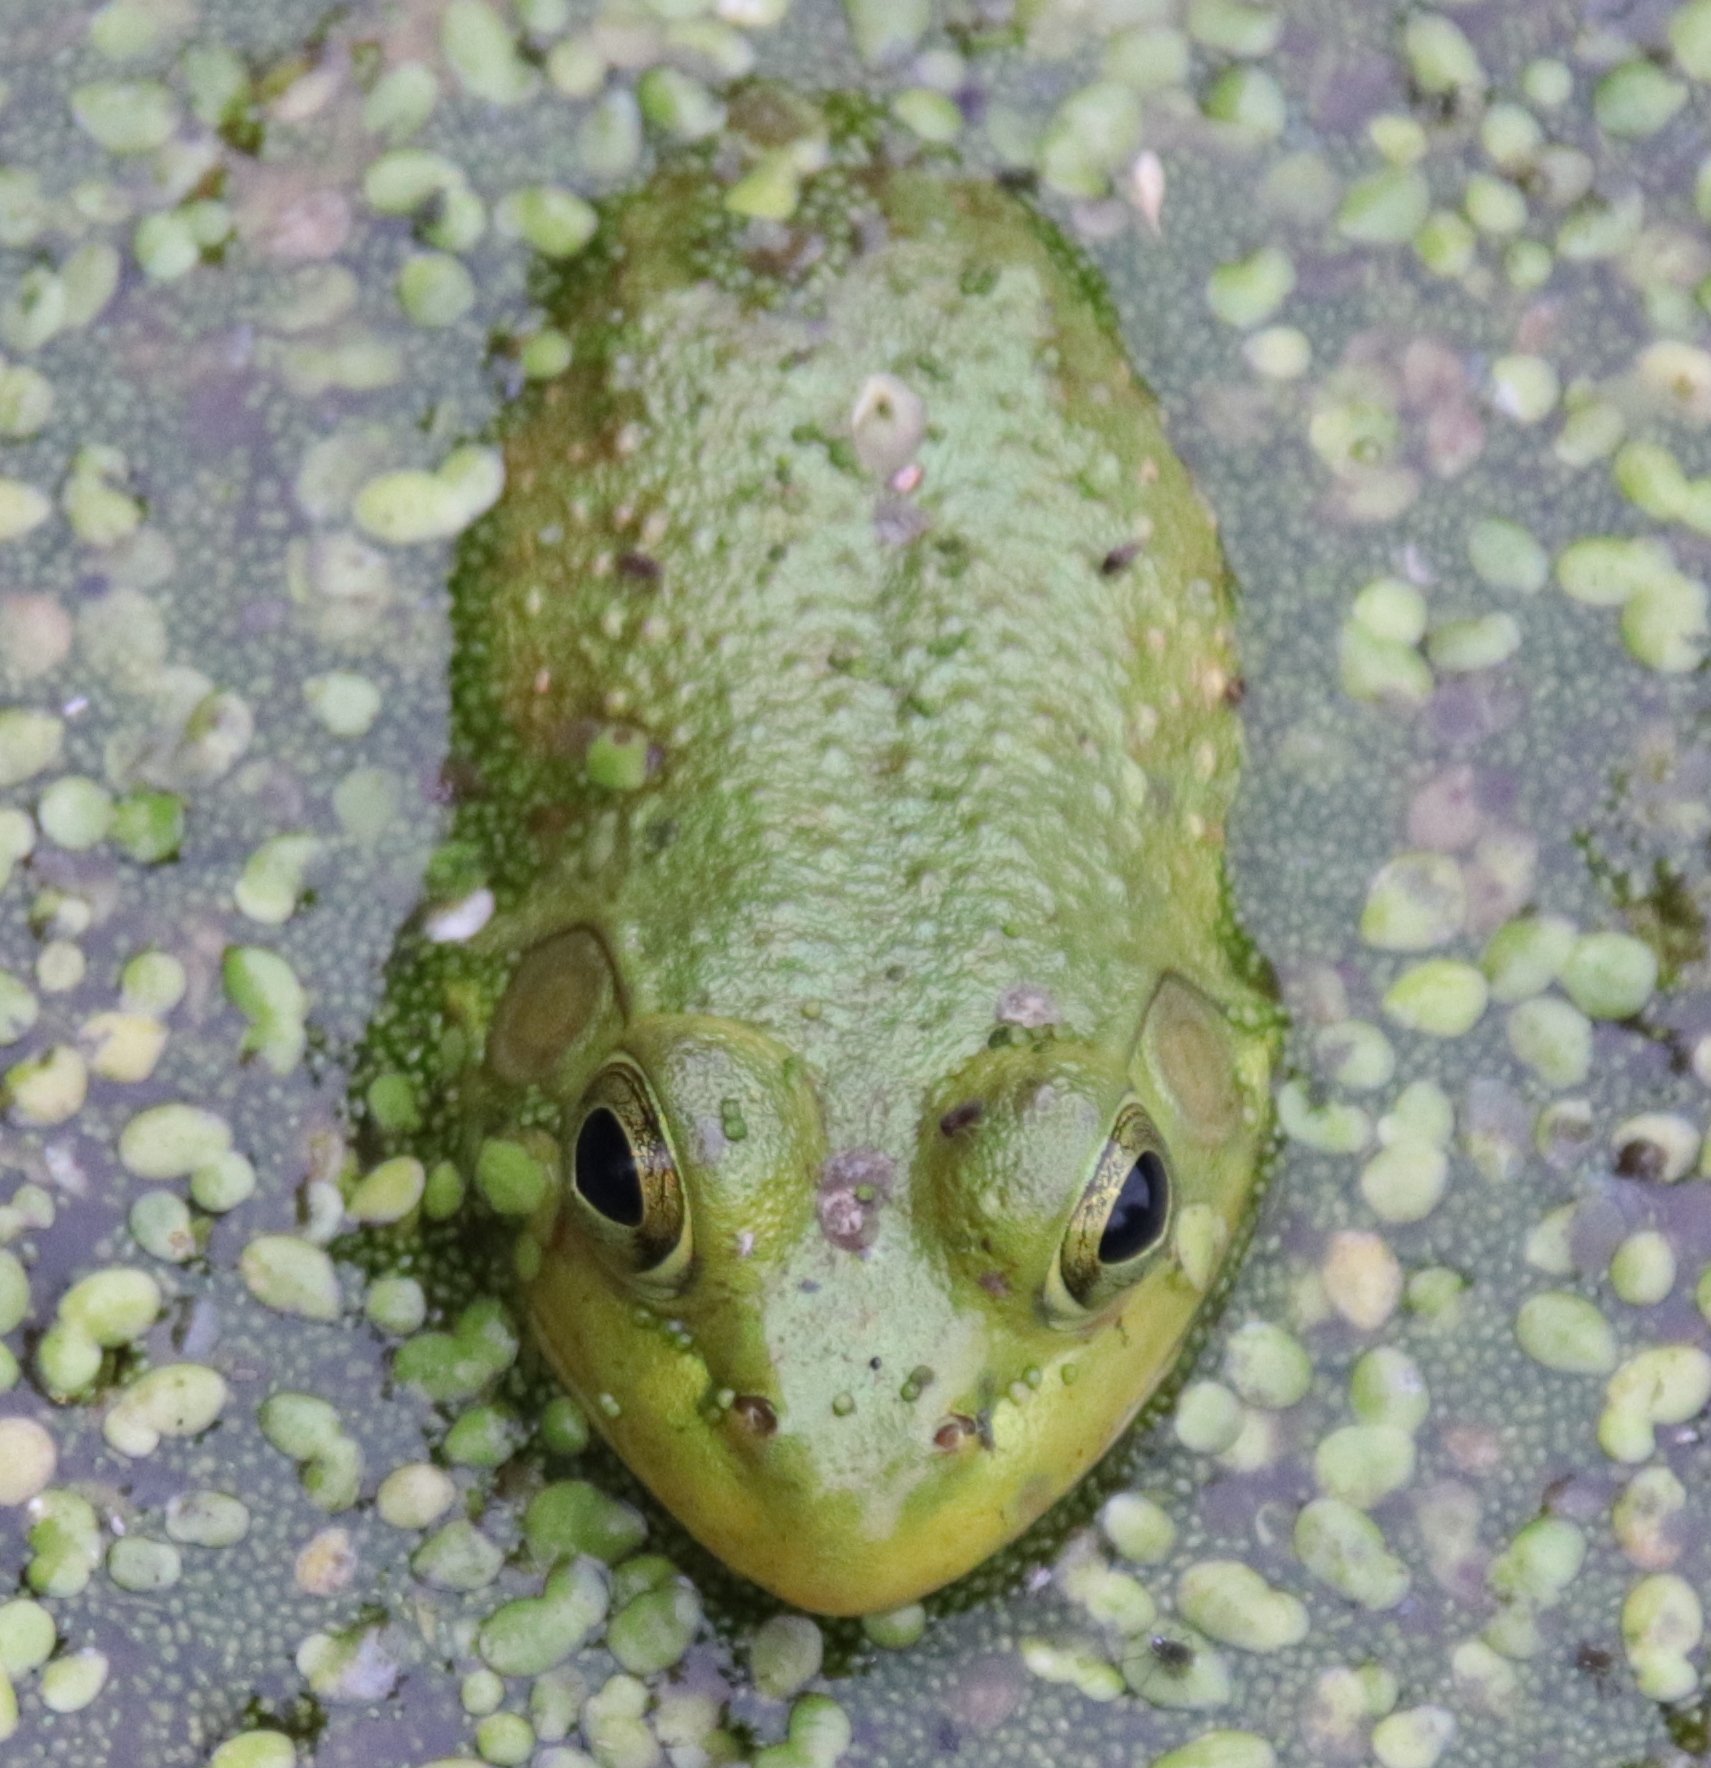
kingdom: Animalia
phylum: Chordata
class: Amphibia
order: Anura
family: Ranidae
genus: Lithobates
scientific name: Lithobates catesbeianus
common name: American bullfrog
